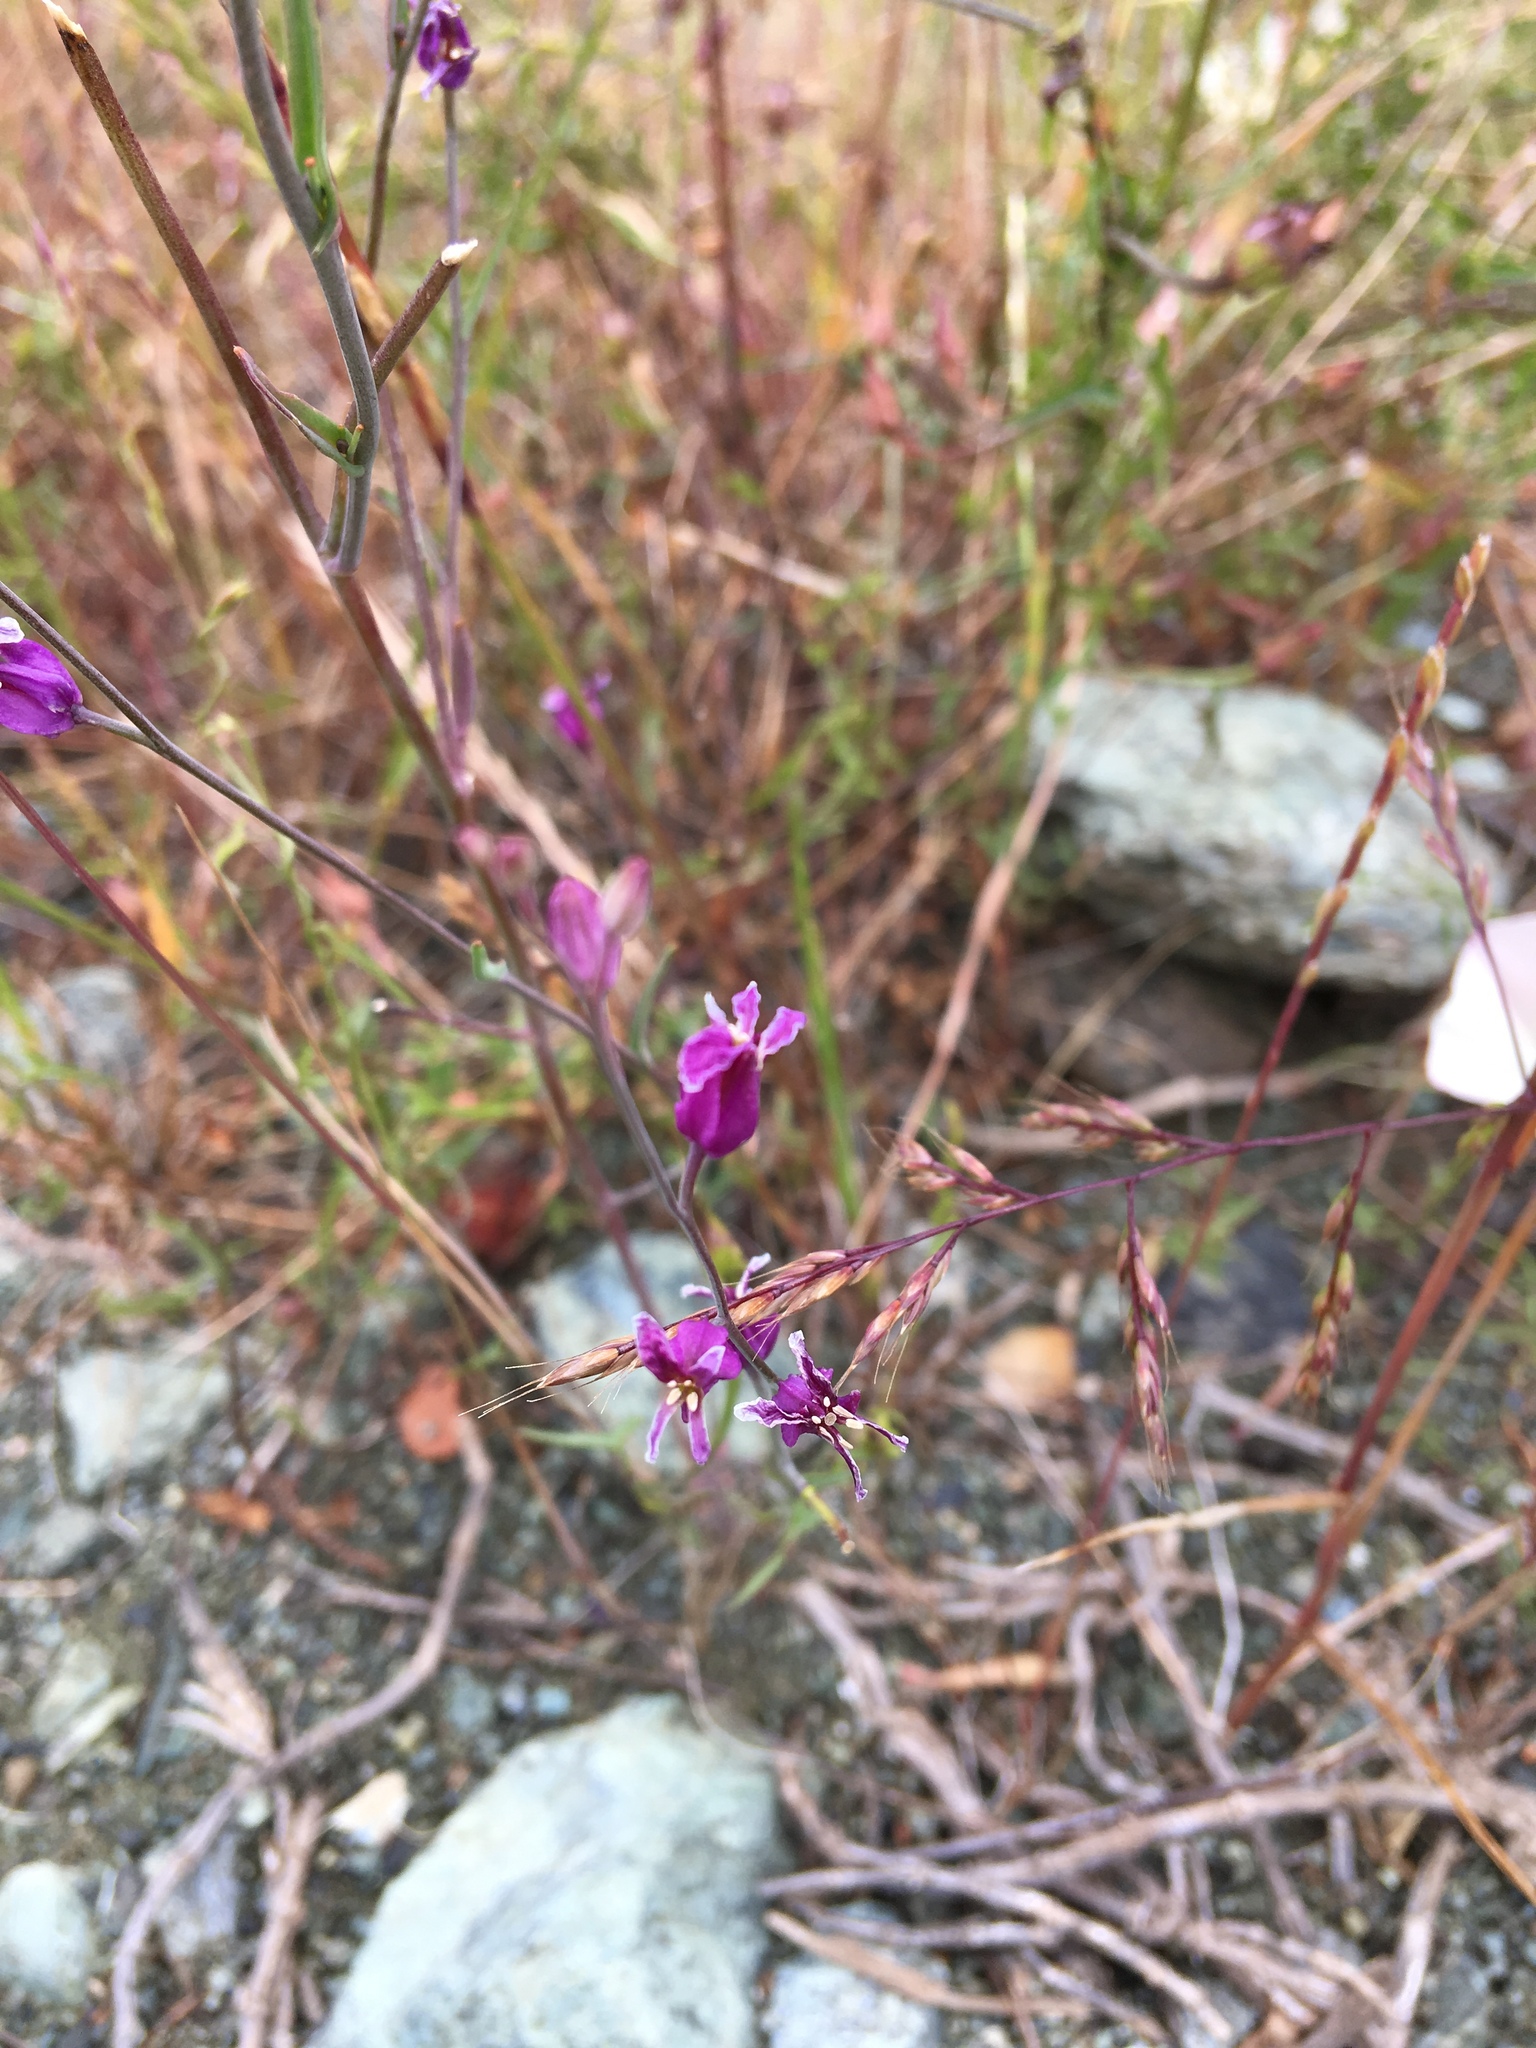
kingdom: Plantae
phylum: Tracheophyta
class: Magnoliopsida
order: Brassicales
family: Brassicaceae
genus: Streptanthus
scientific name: Streptanthus glandulosus
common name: Jewel-flower
